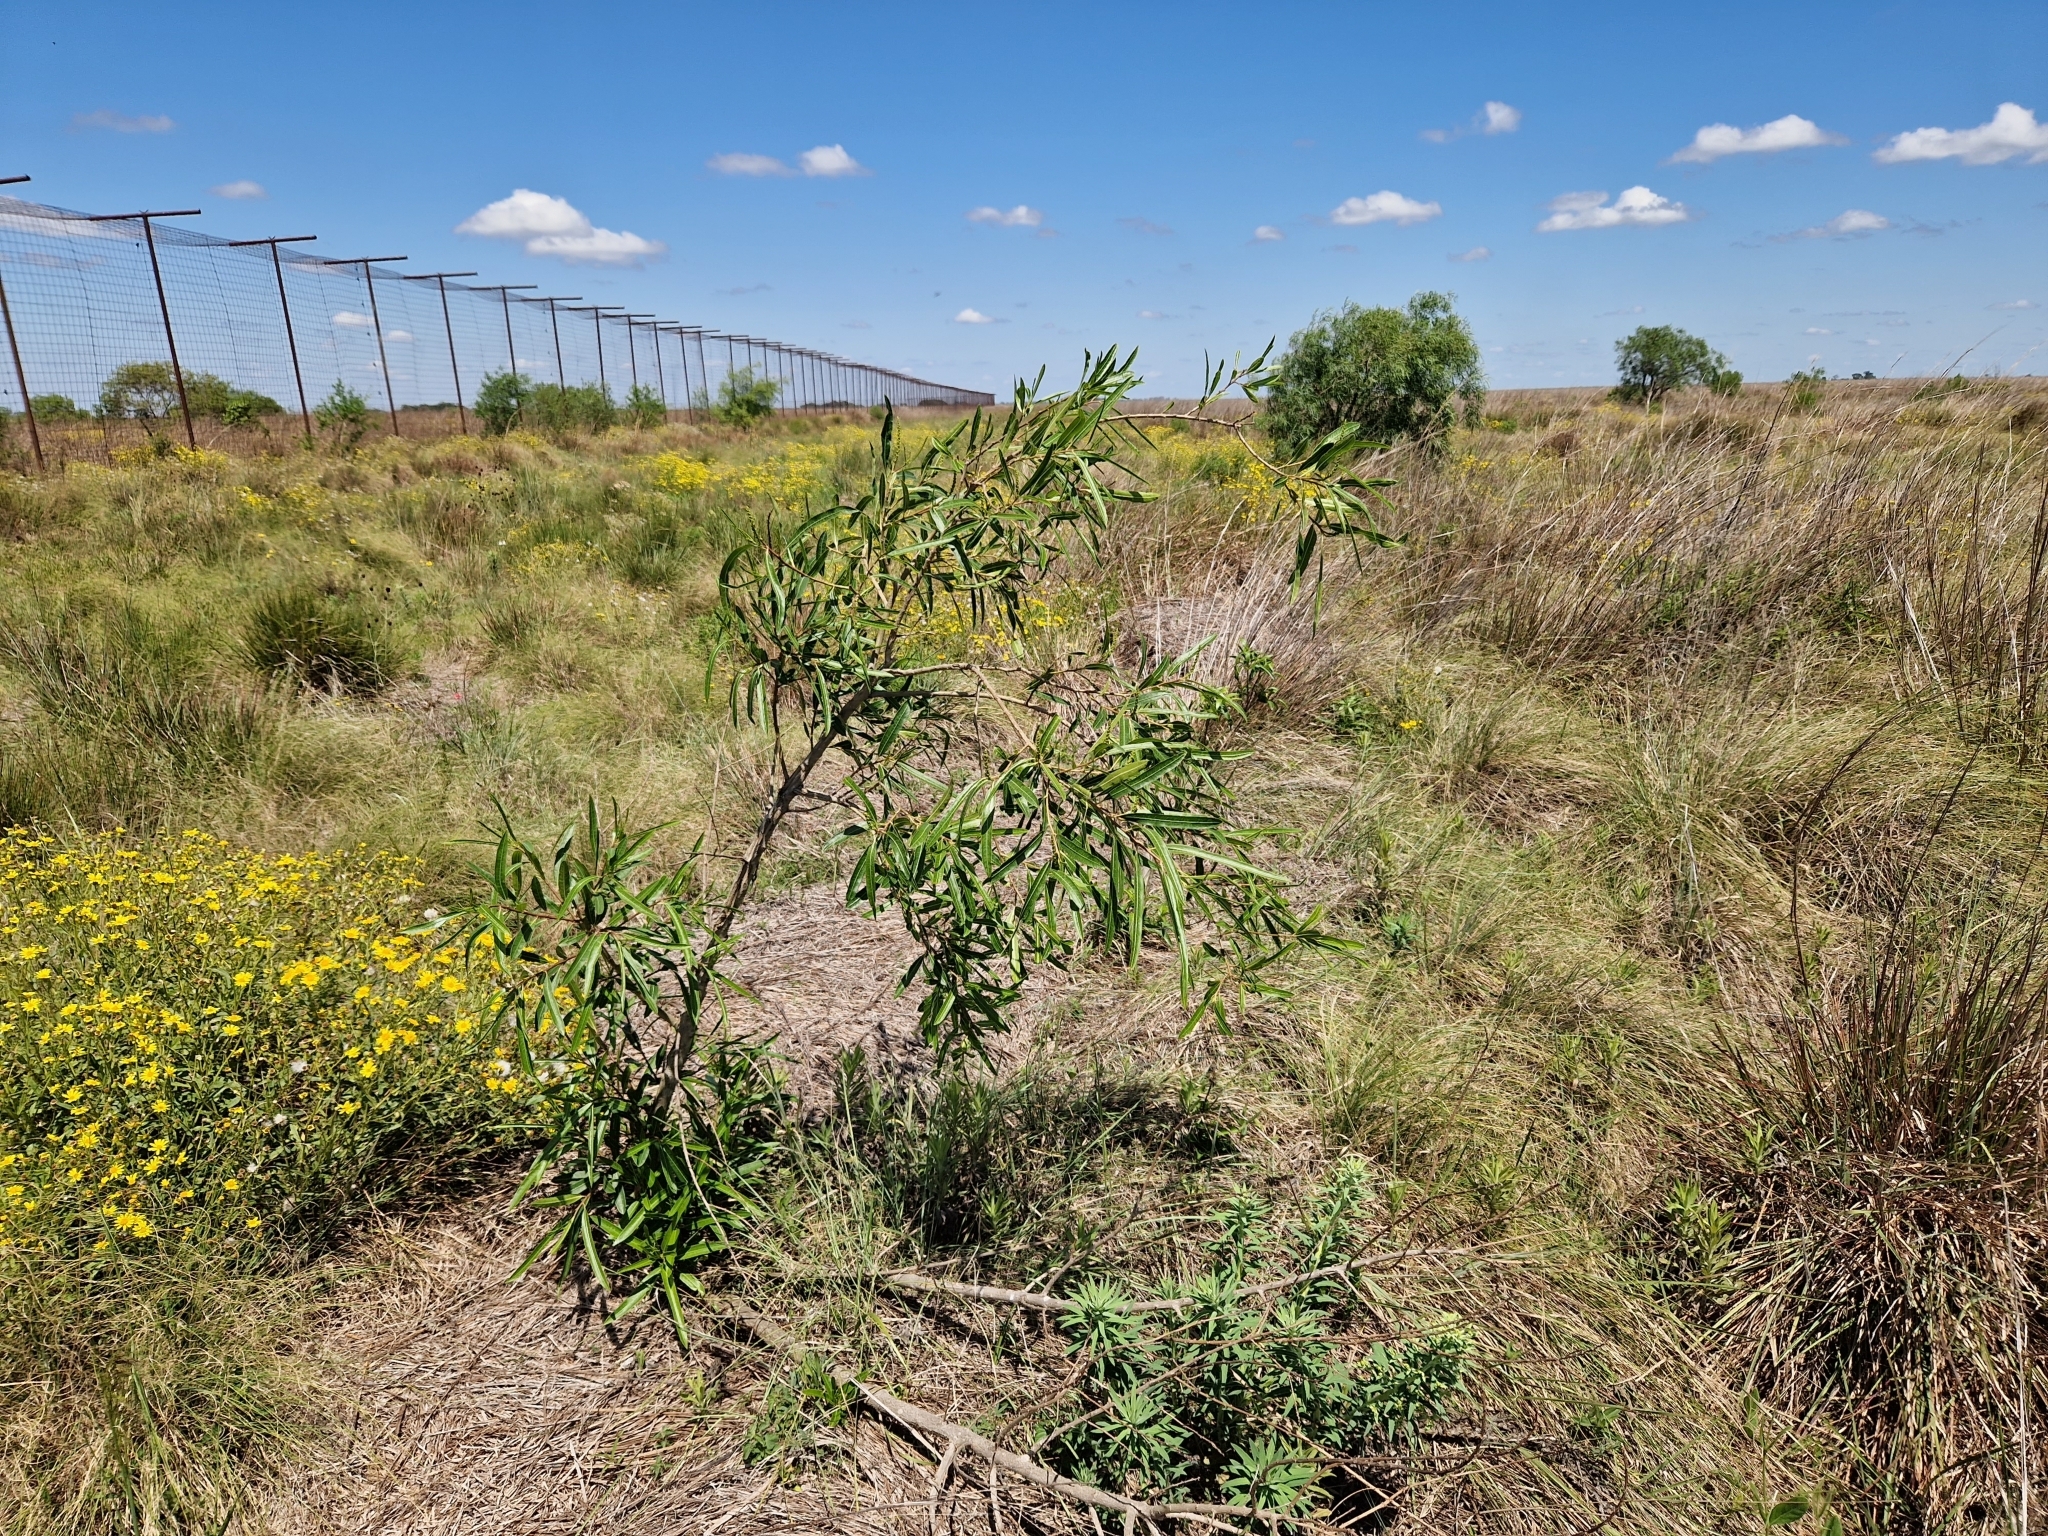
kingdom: Plantae
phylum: Tracheophyta
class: Magnoliopsida
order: Malpighiales
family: Euphorbiaceae
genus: Sapium
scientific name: Sapium haematospermum
